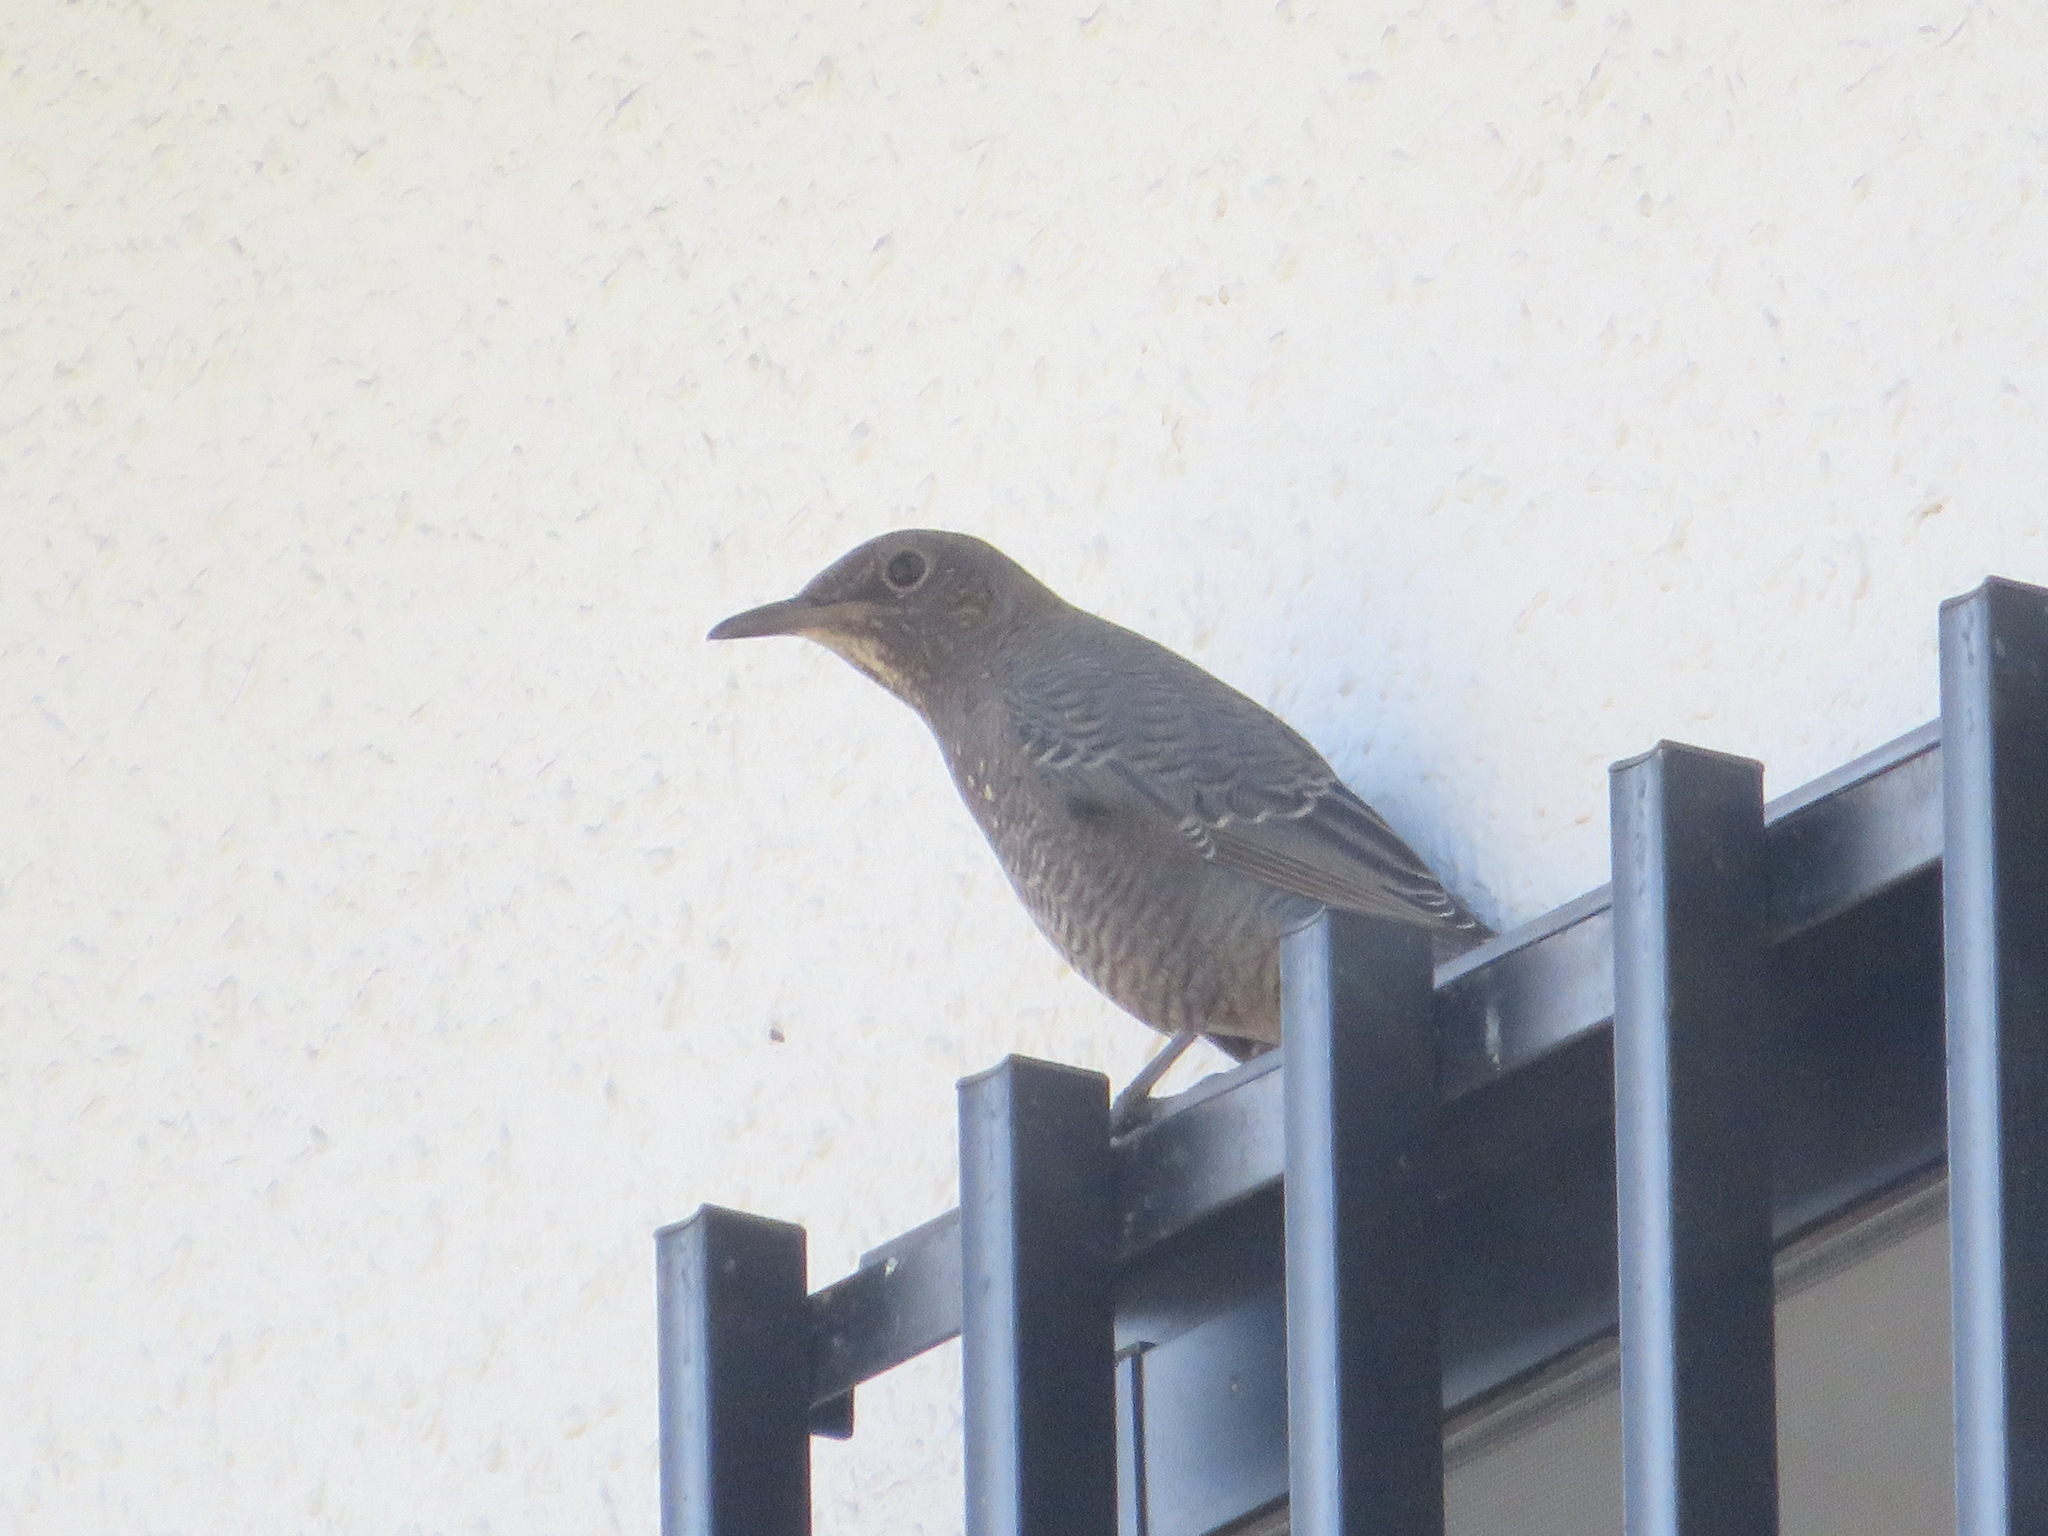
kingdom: Animalia
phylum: Chordata
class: Aves
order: Passeriformes
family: Muscicapidae
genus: Monticola
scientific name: Monticola solitarius
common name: Blue rock thrush
